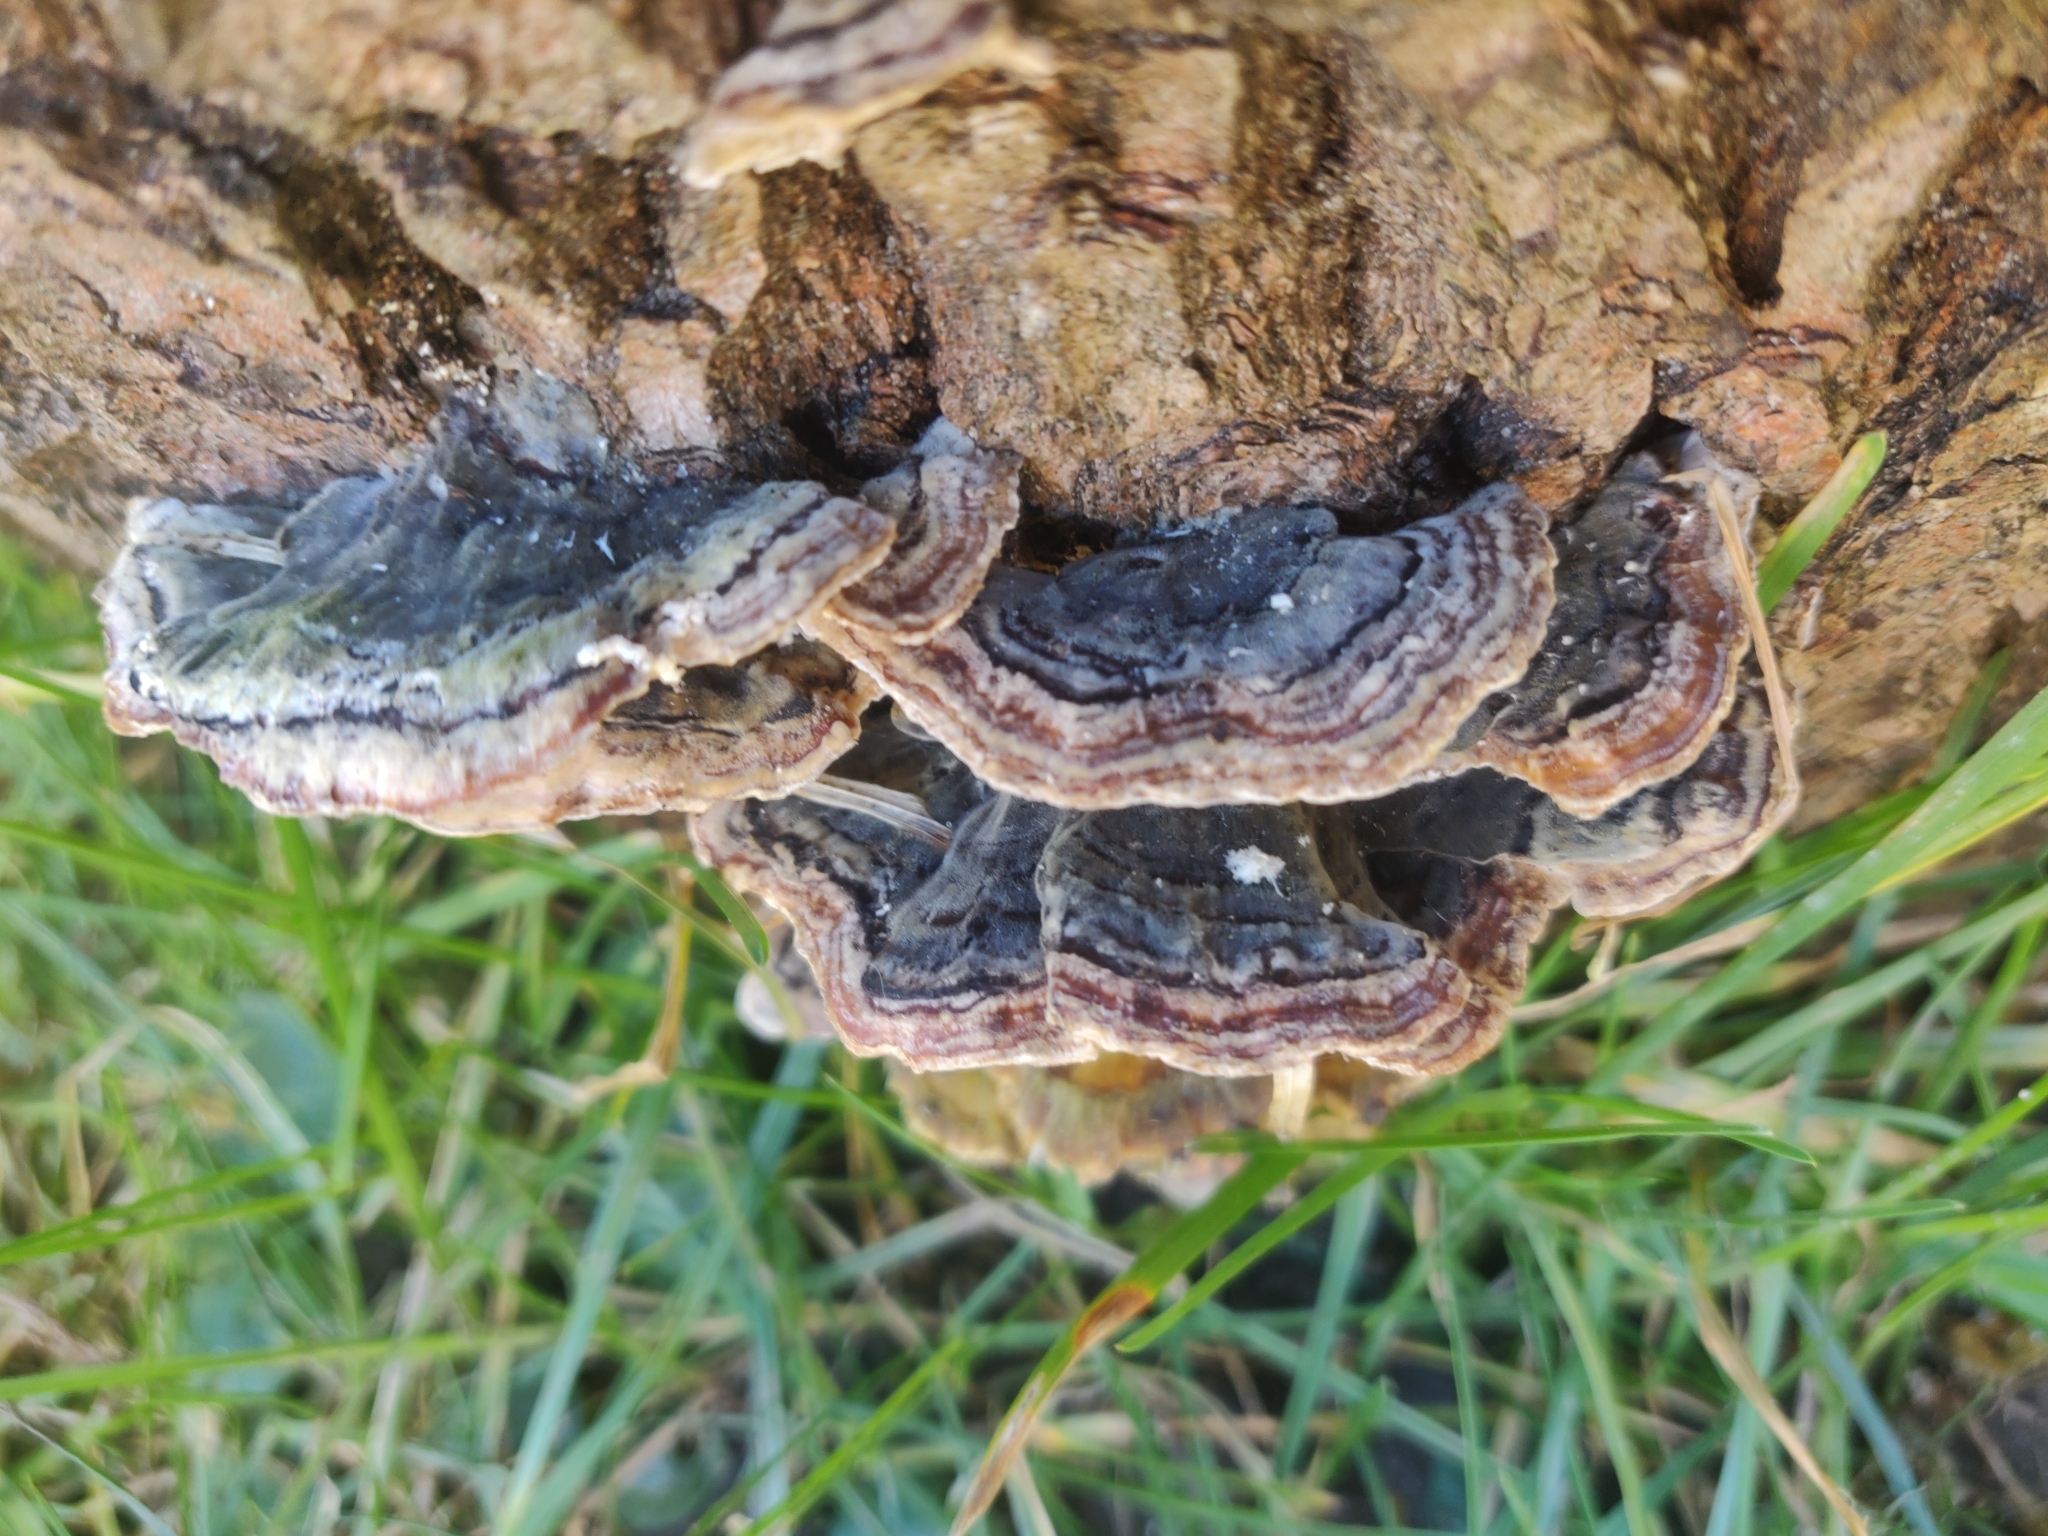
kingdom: Fungi
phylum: Basidiomycota
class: Agaricomycetes
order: Polyporales
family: Polyporaceae
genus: Trametes
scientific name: Trametes versicolor
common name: Turkeytail
